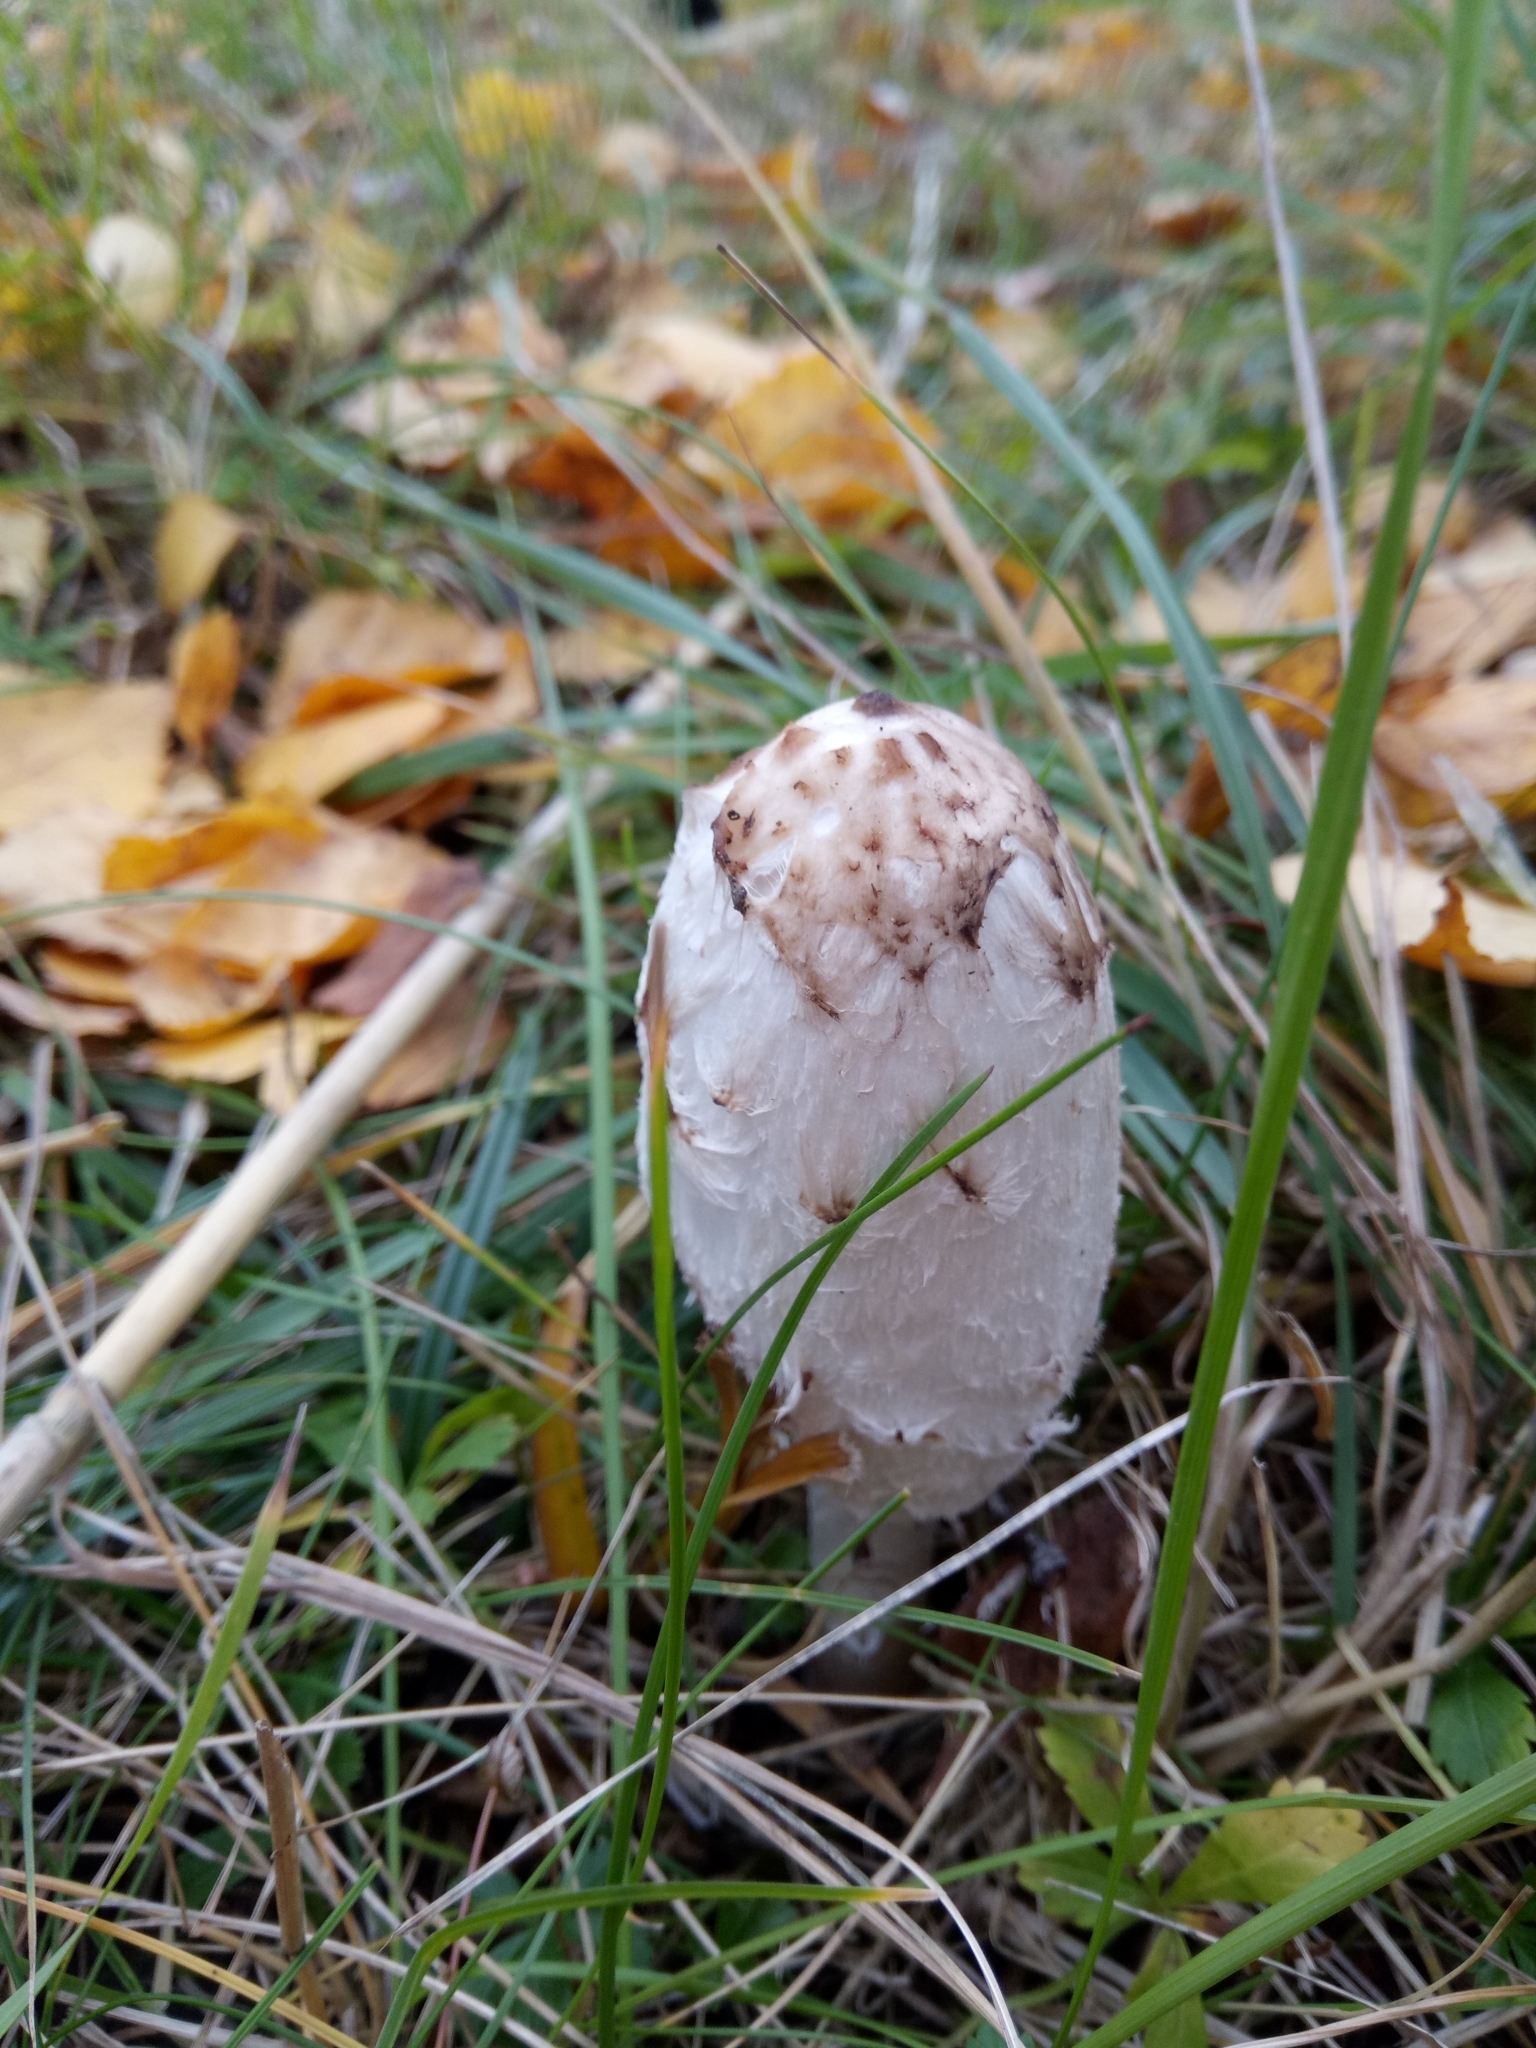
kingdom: Fungi
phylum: Basidiomycota
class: Agaricomycetes
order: Agaricales
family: Agaricaceae
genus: Coprinus
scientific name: Coprinus comatus
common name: Lawyer's wig
